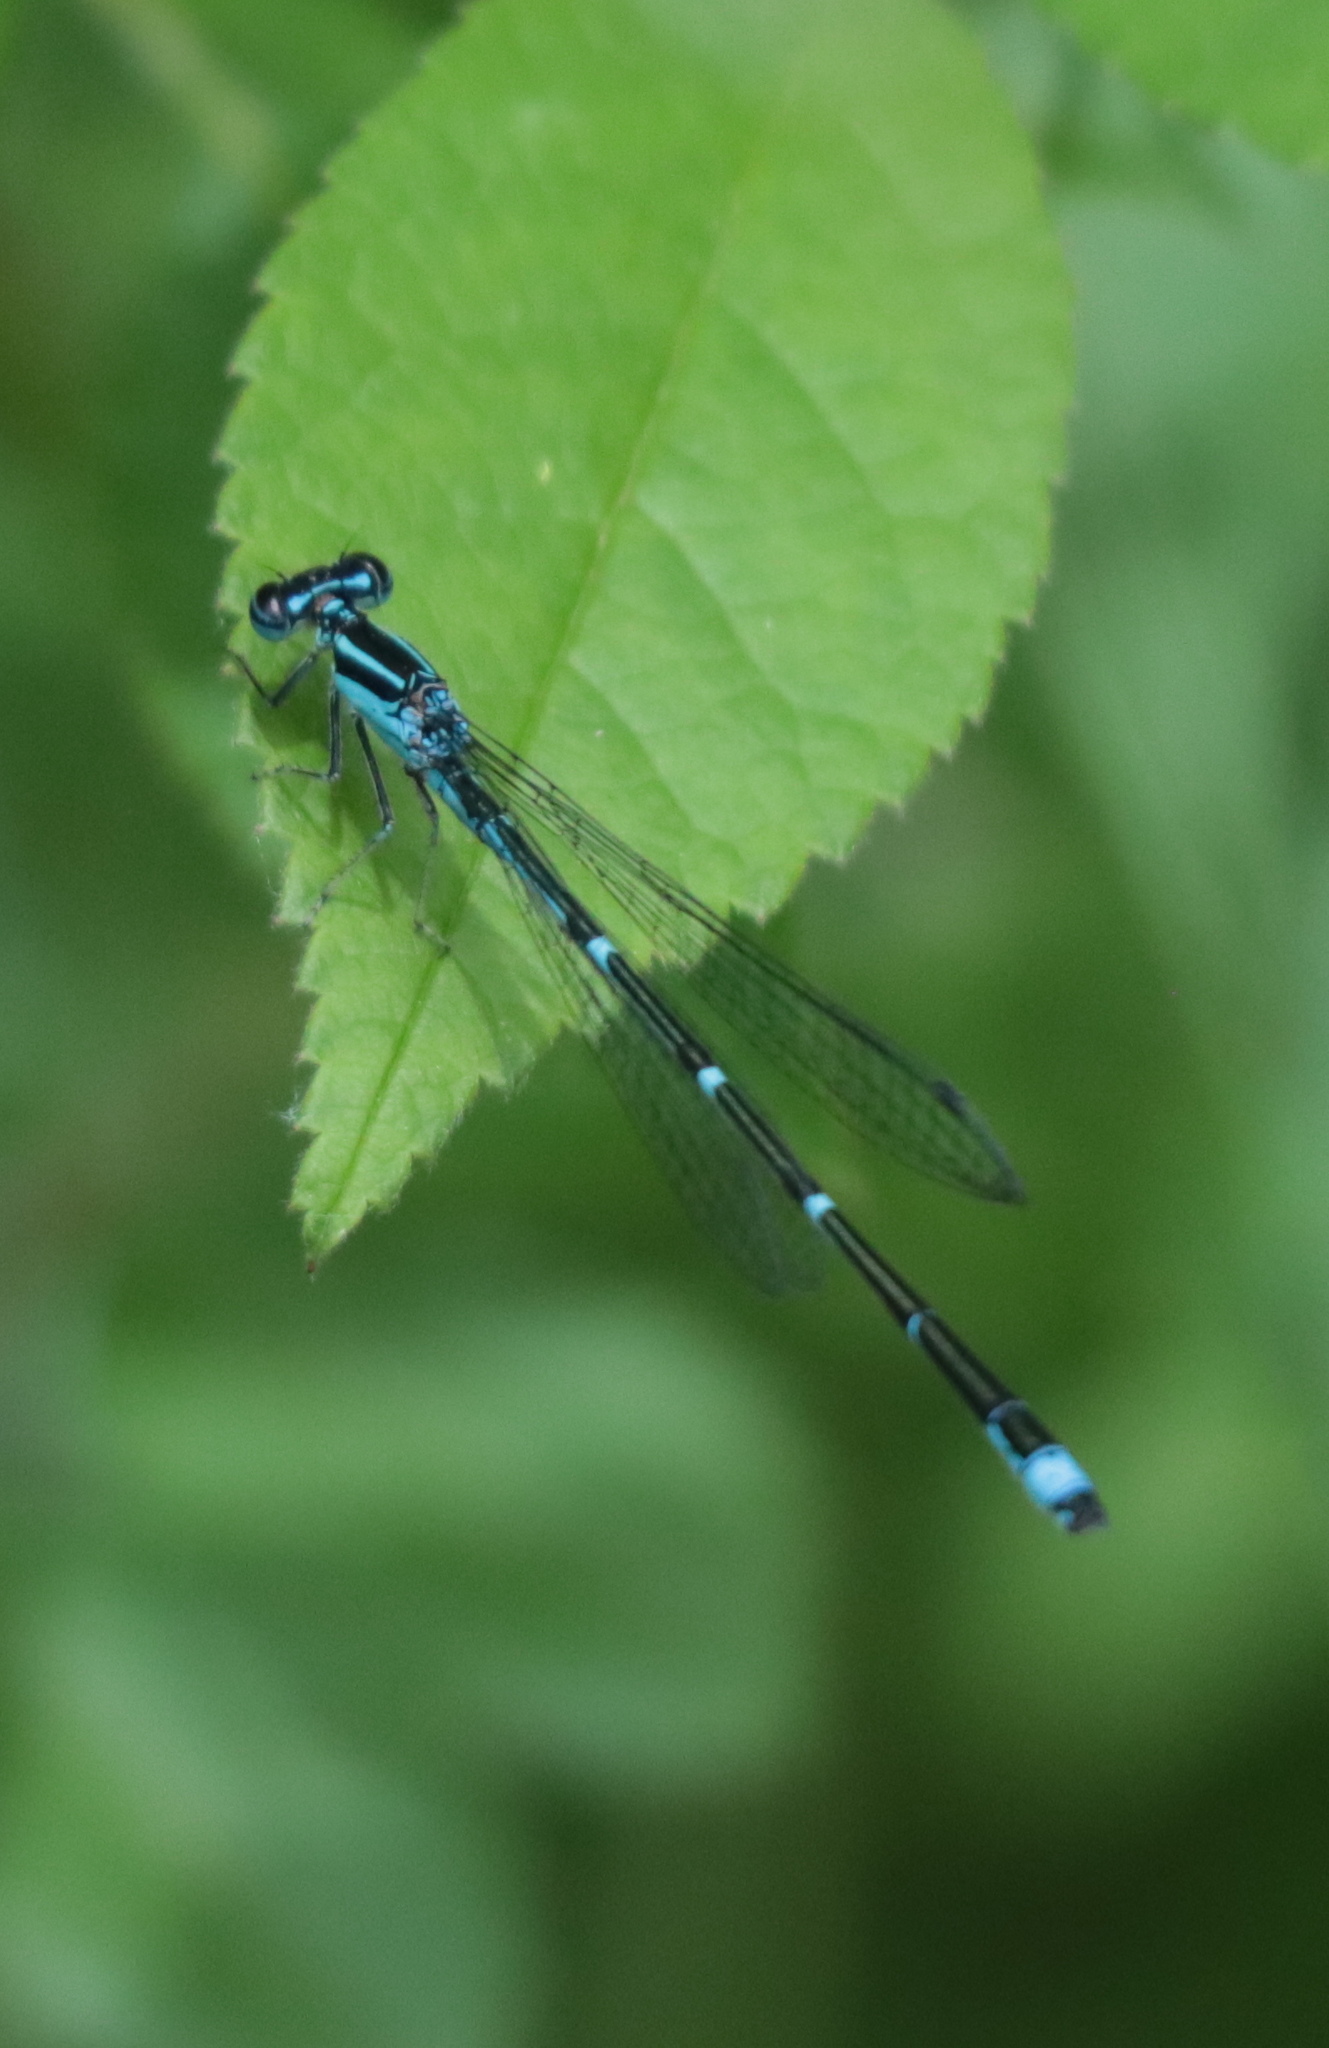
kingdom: Animalia
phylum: Arthropoda
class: Insecta
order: Odonata
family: Coenagrionidae
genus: Enallagma
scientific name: Enallagma exsulans
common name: Stream bluet
